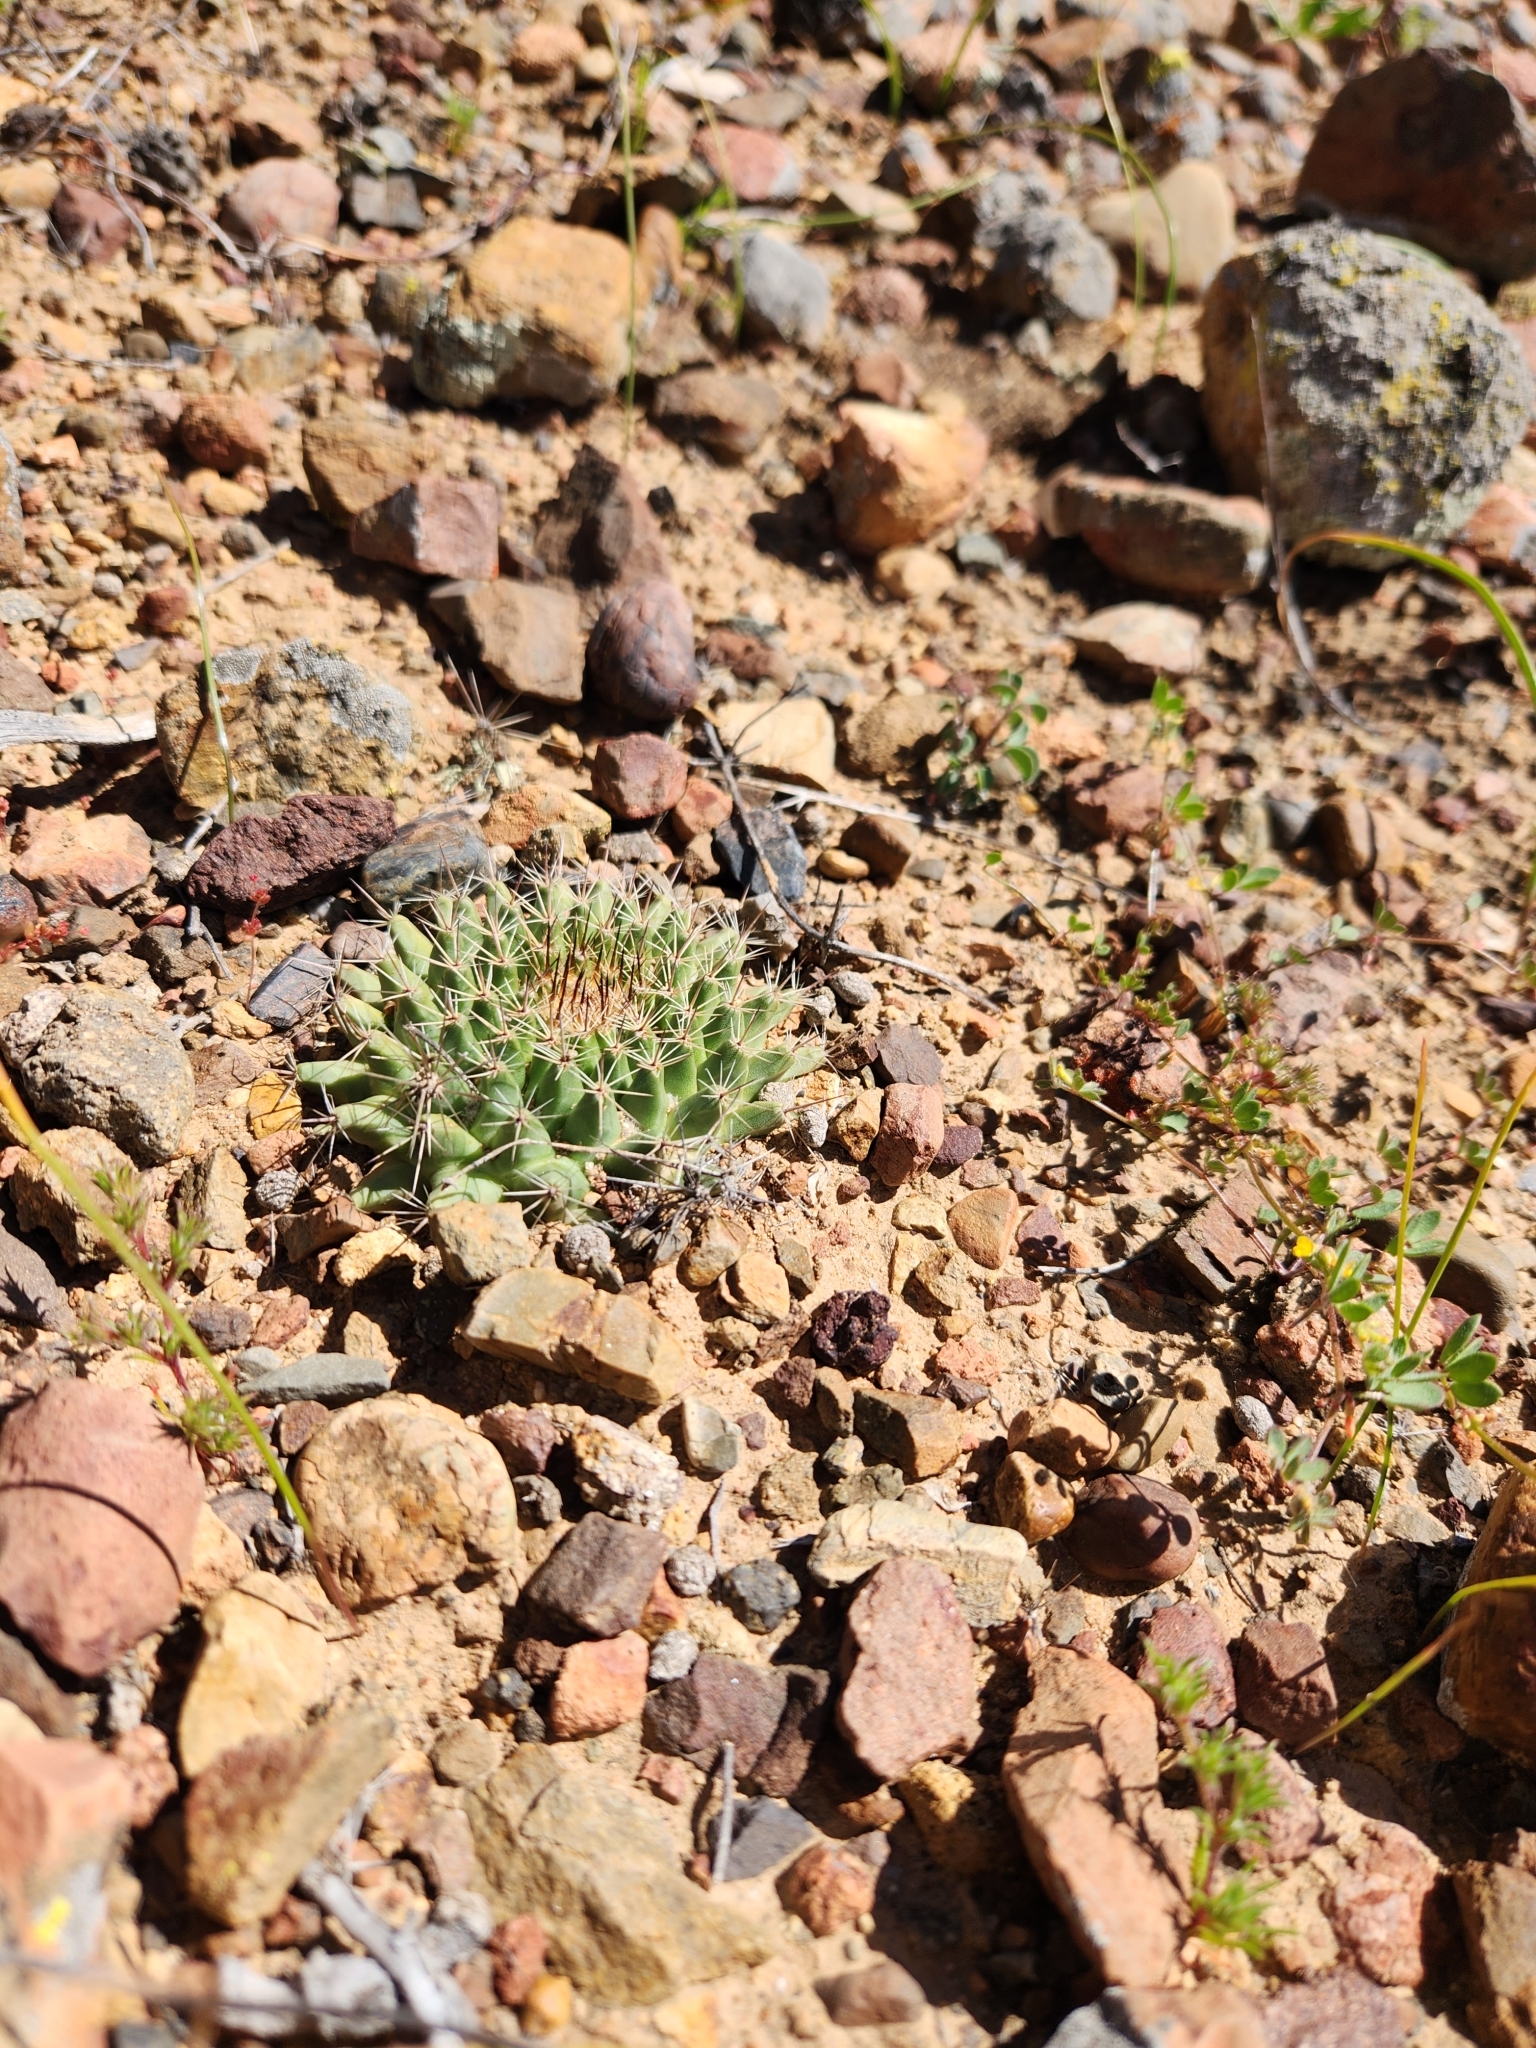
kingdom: Plantae
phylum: Tracheophyta
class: Magnoliopsida
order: Caryophyllales
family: Cactaceae
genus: Mammillaria
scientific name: Mammillaria brandegeei
